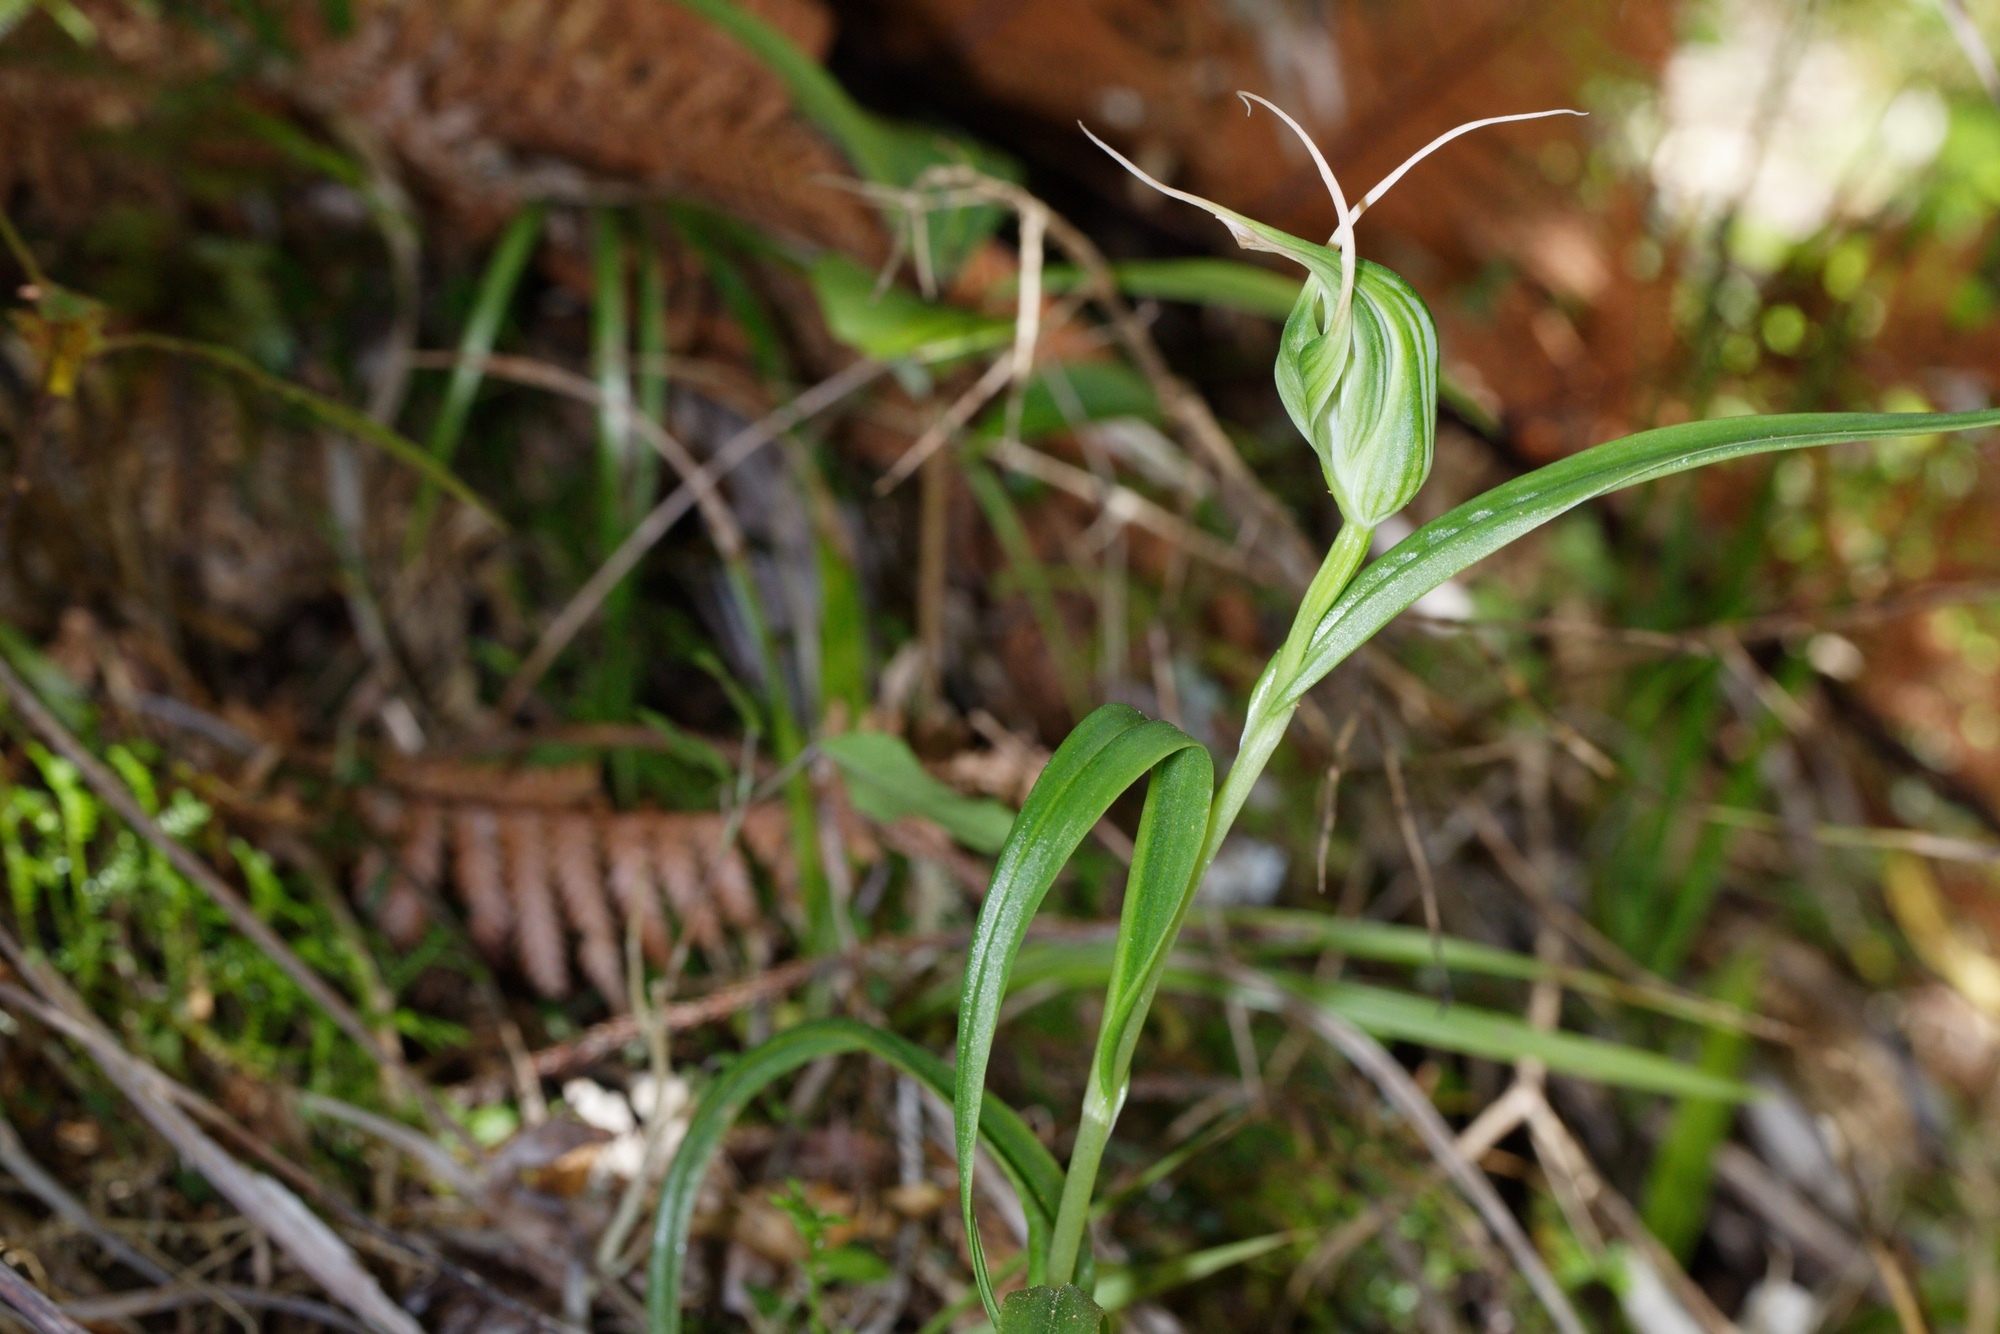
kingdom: Plantae
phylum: Tracheophyta
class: Liliopsida
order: Asparagales
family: Orchidaceae
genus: Pterostylis
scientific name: Pterostylis banksii
